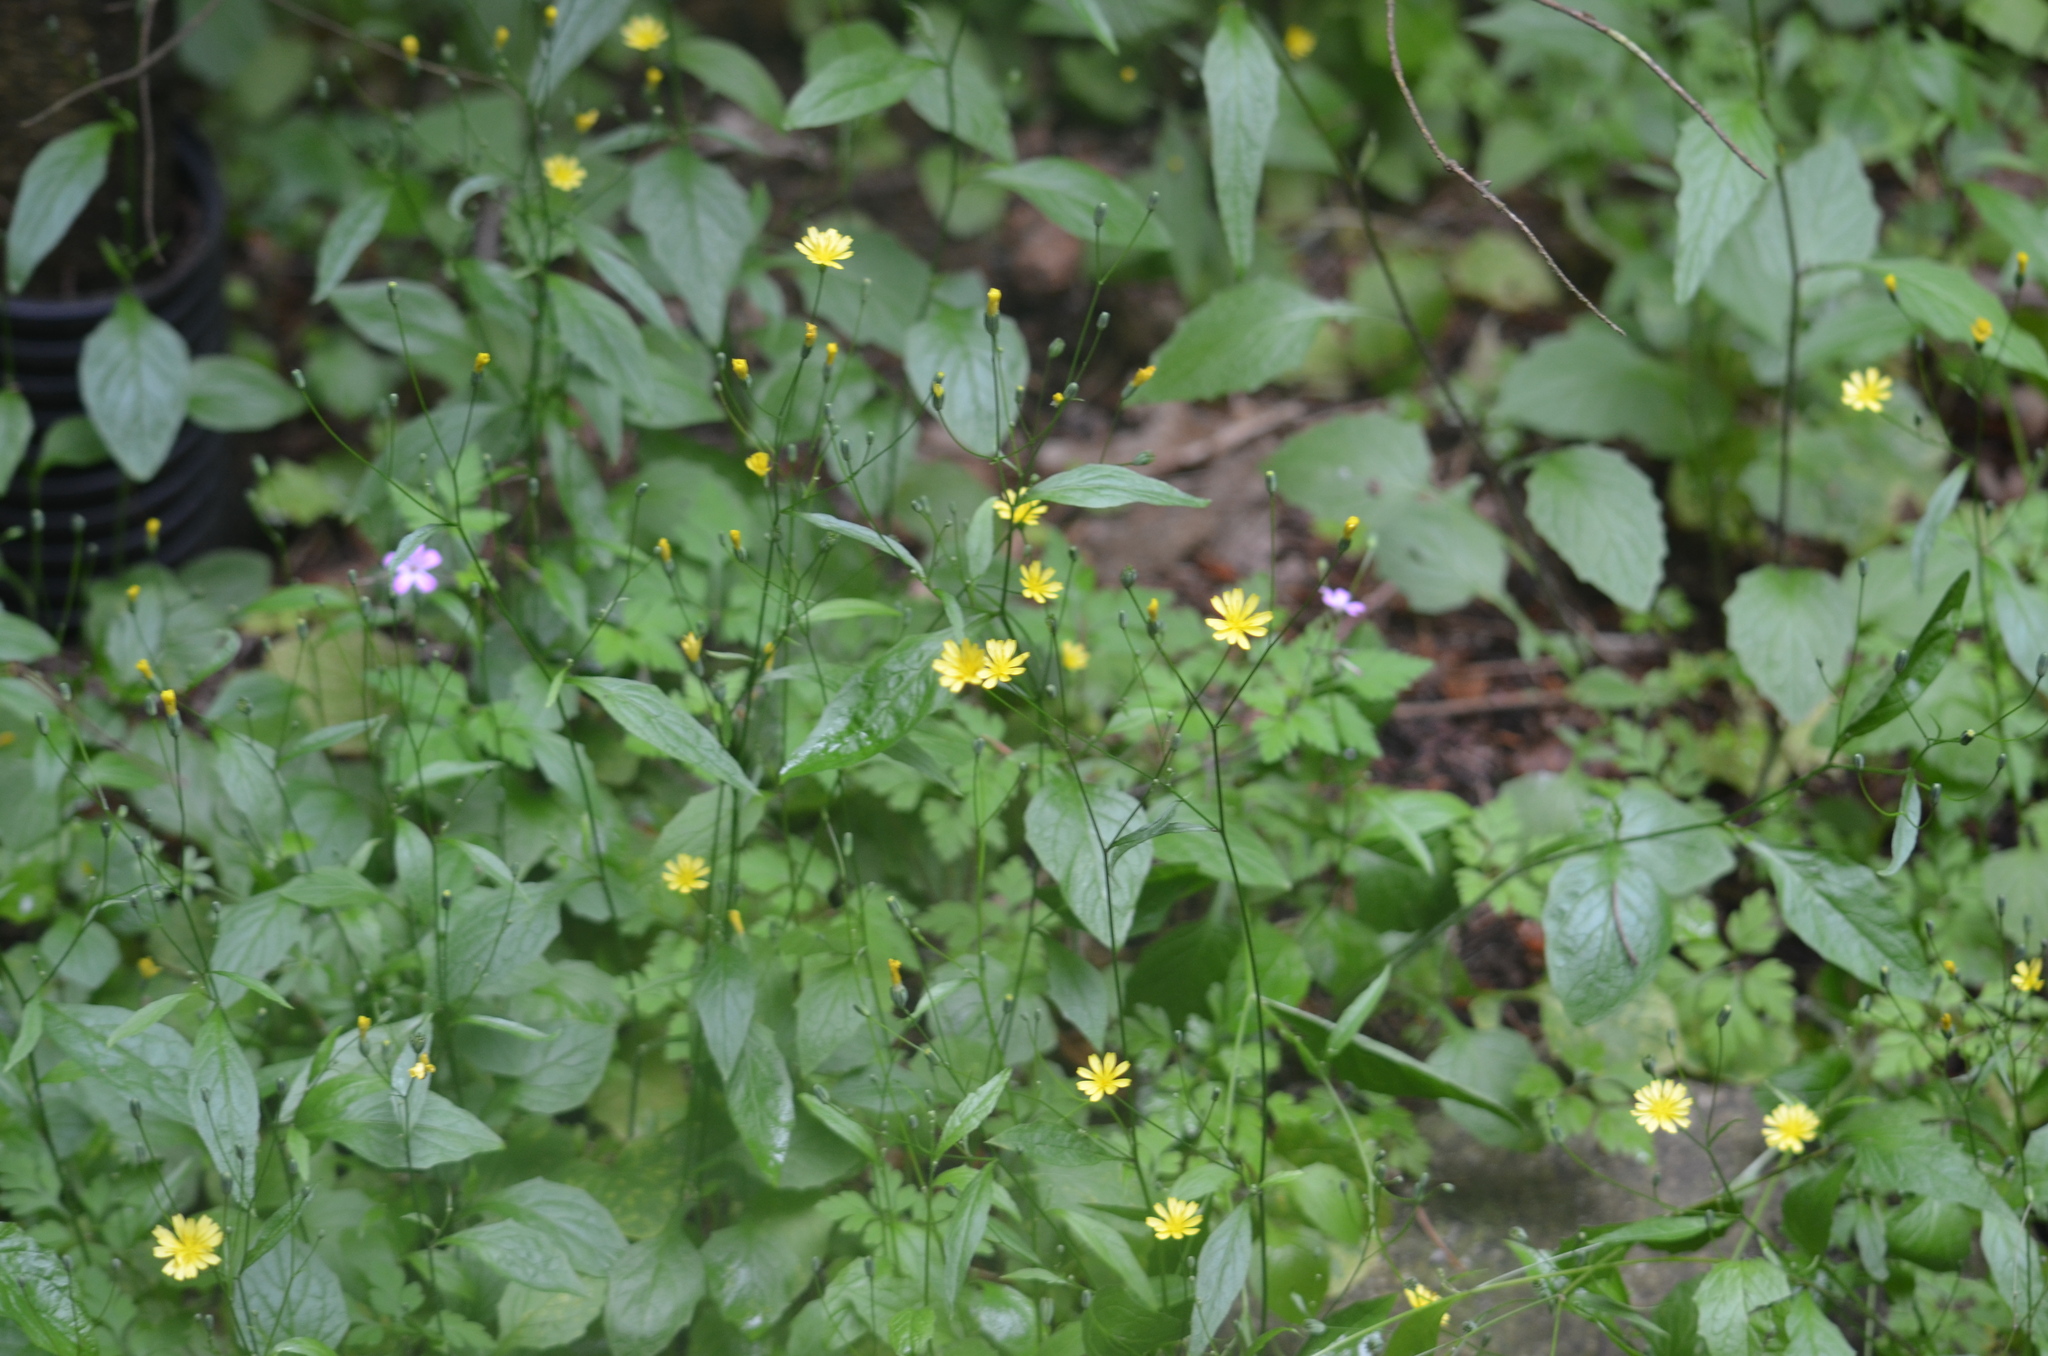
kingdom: Plantae
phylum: Tracheophyta
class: Magnoliopsida
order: Asterales
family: Asteraceae
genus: Lapsana
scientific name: Lapsana communis
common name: Nipplewort
